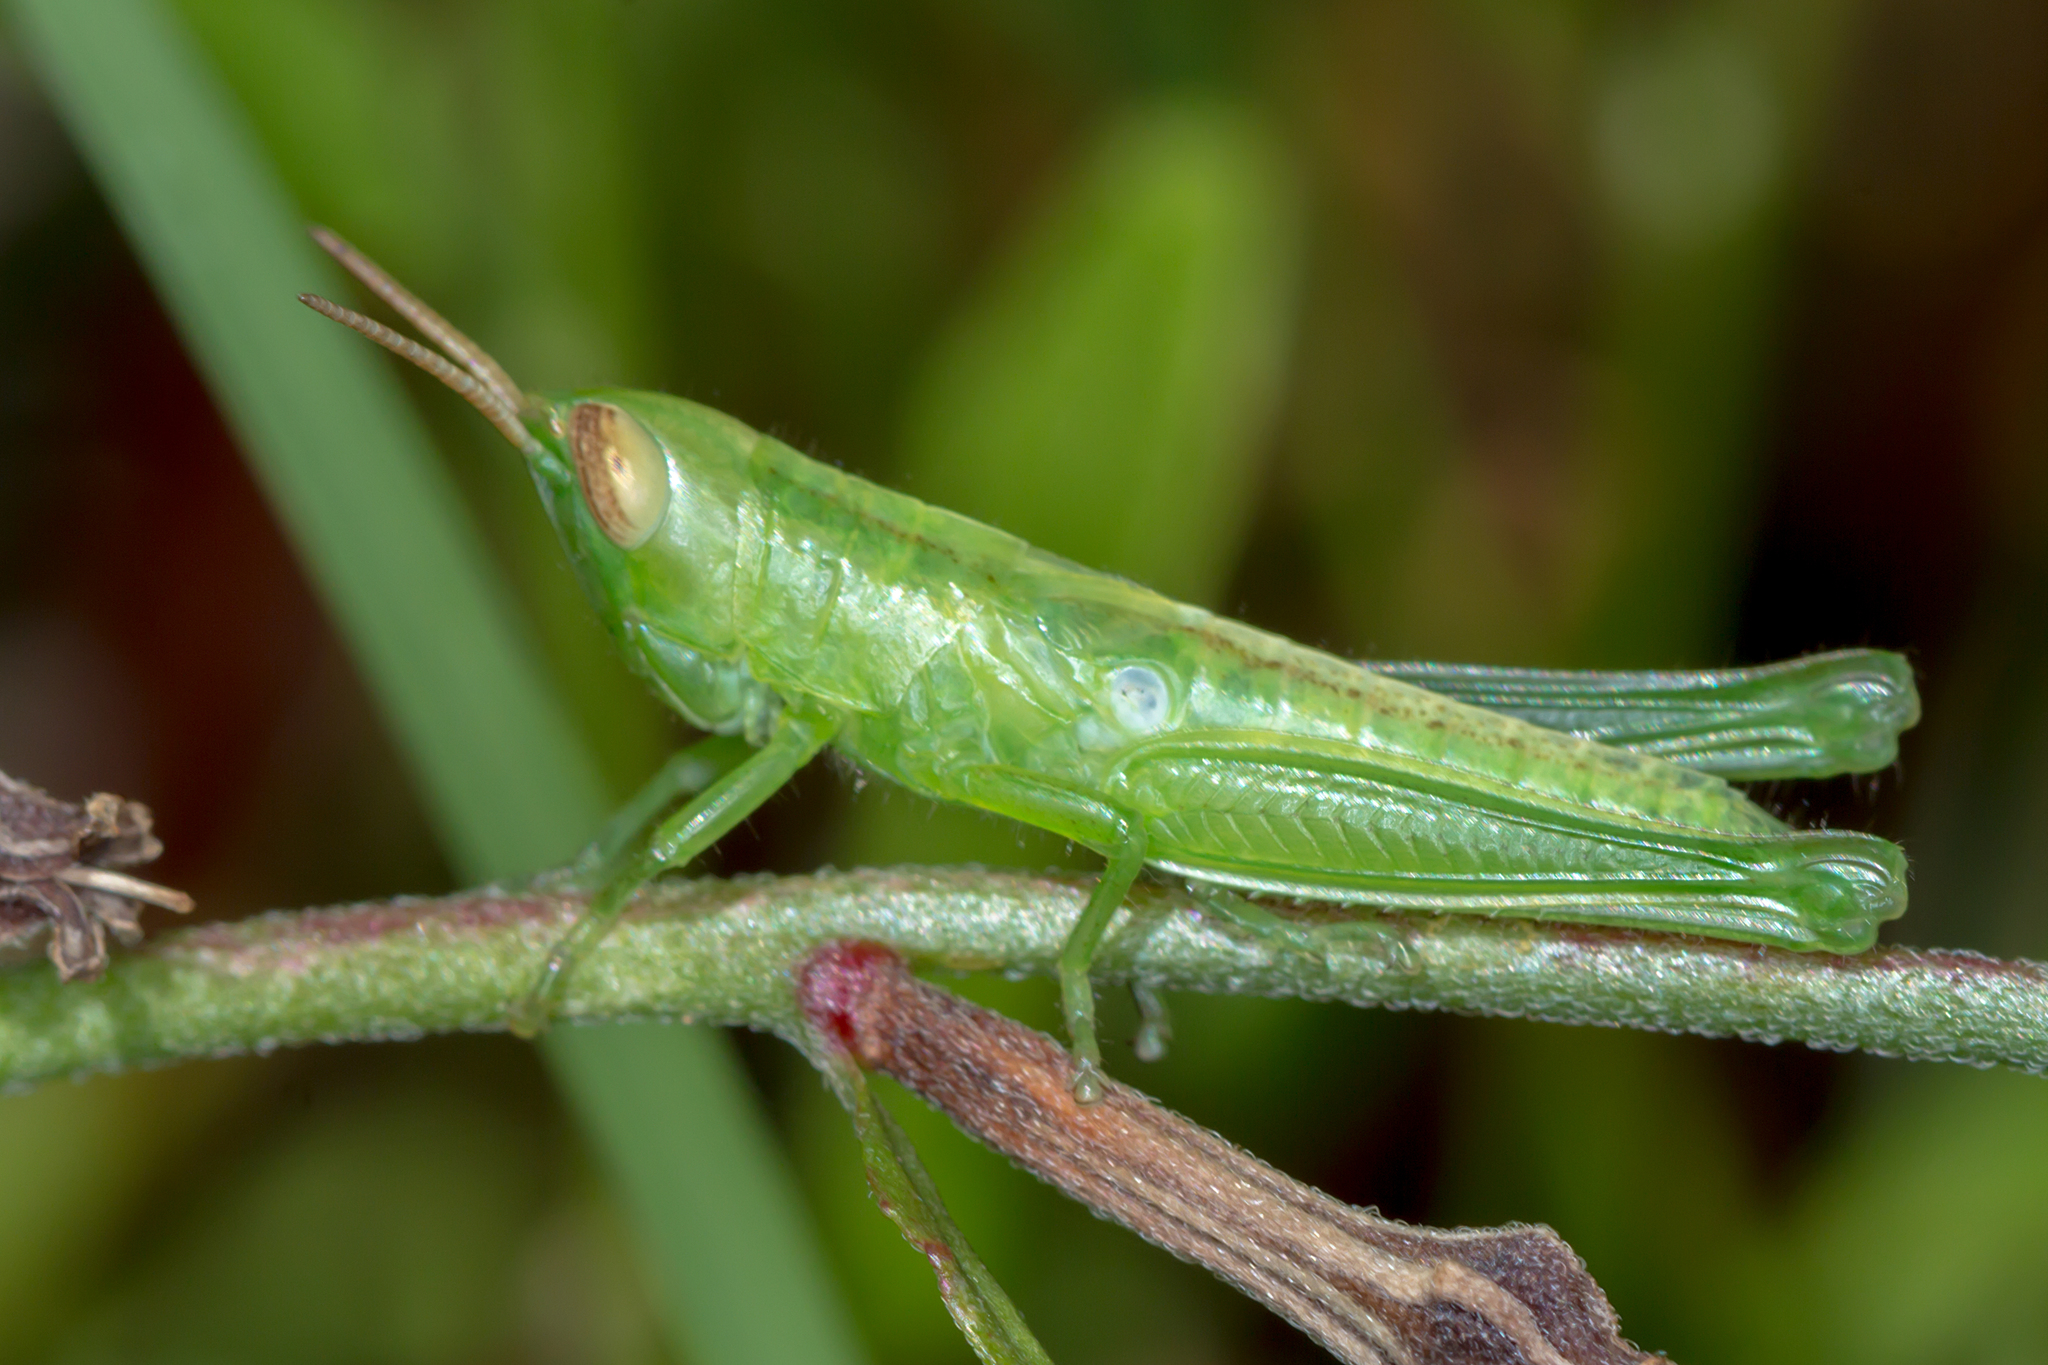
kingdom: Animalia
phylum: Arthropoda
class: Insecta
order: Orthoptera
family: Acrididae
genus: Bermius
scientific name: Bermius brachycerus
